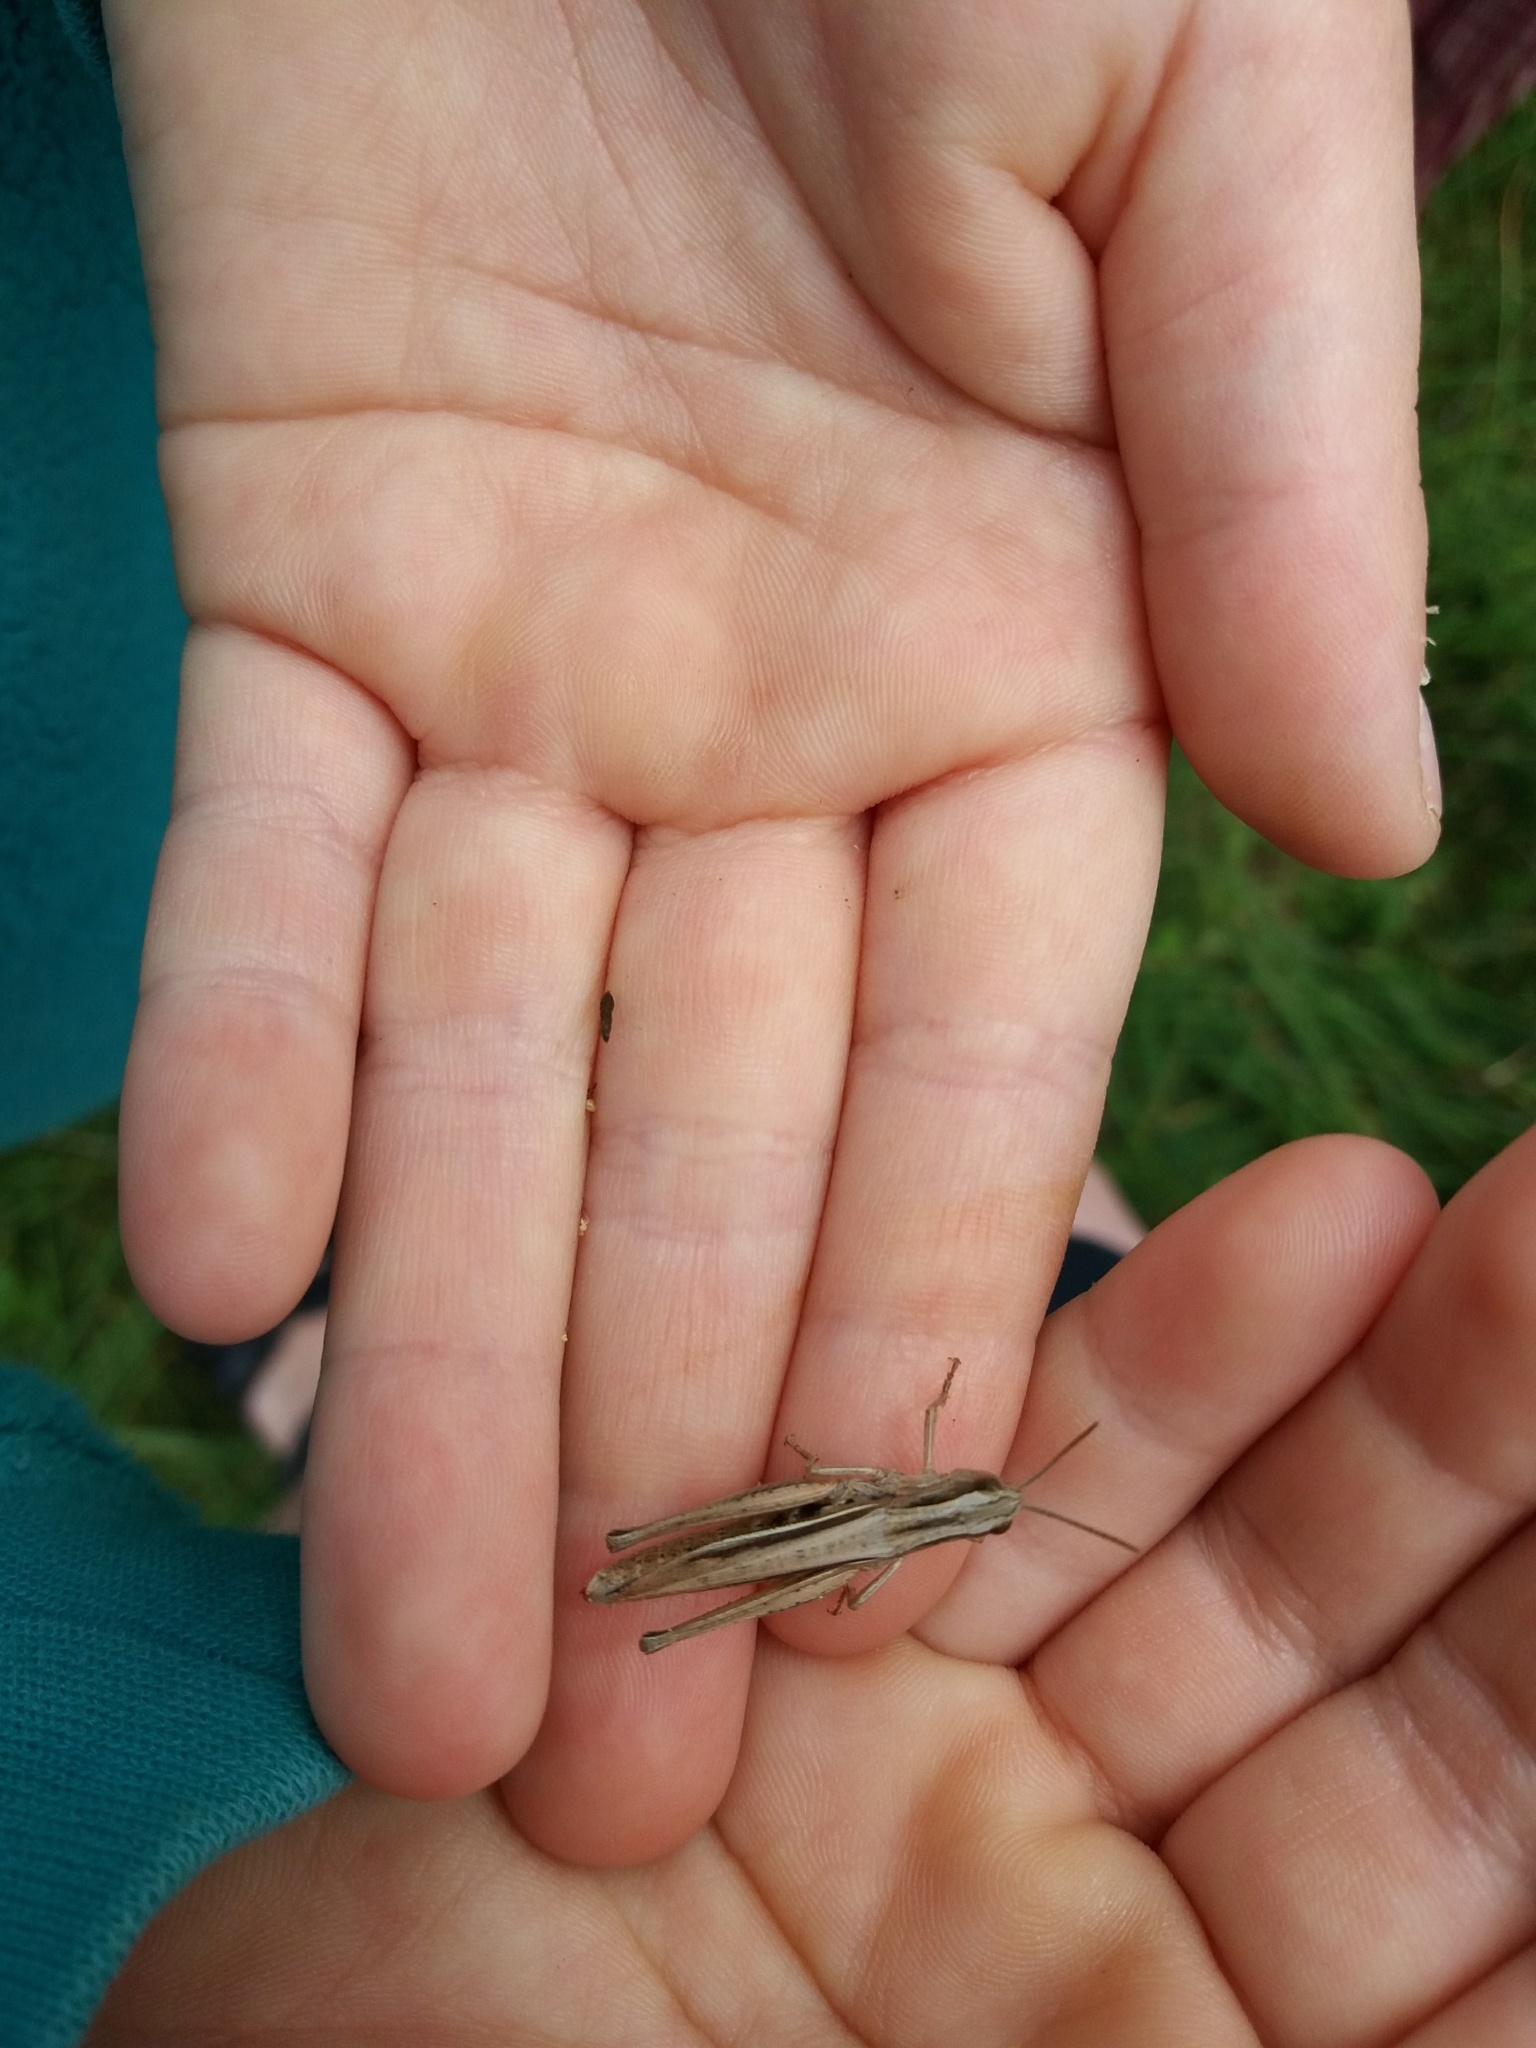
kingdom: Animalia
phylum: Arthropoda
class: Insecta
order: Orthoptera
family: Acrididae
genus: Chorthippus
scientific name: Chorthippus albomarginatus
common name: Lesser marsh grasshopper
